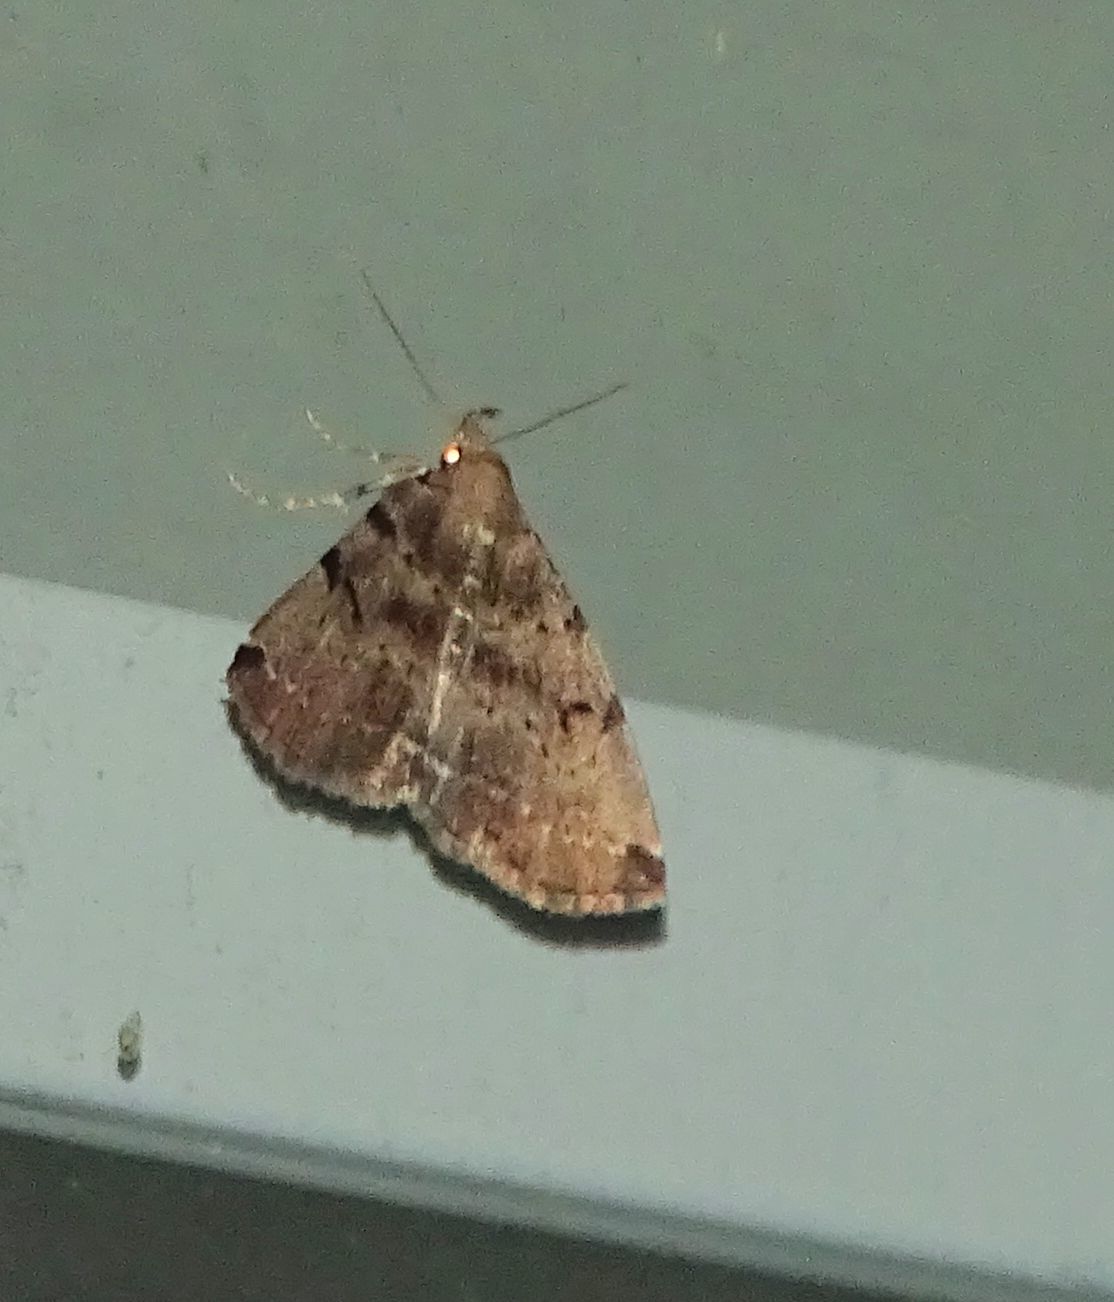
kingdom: Animalia
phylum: Arthropoda
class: Insecta
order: Lepidoptera
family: Erebidae
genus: Zanclognatha
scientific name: Zanclognatha lituralis
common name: Lettered fan-foot
